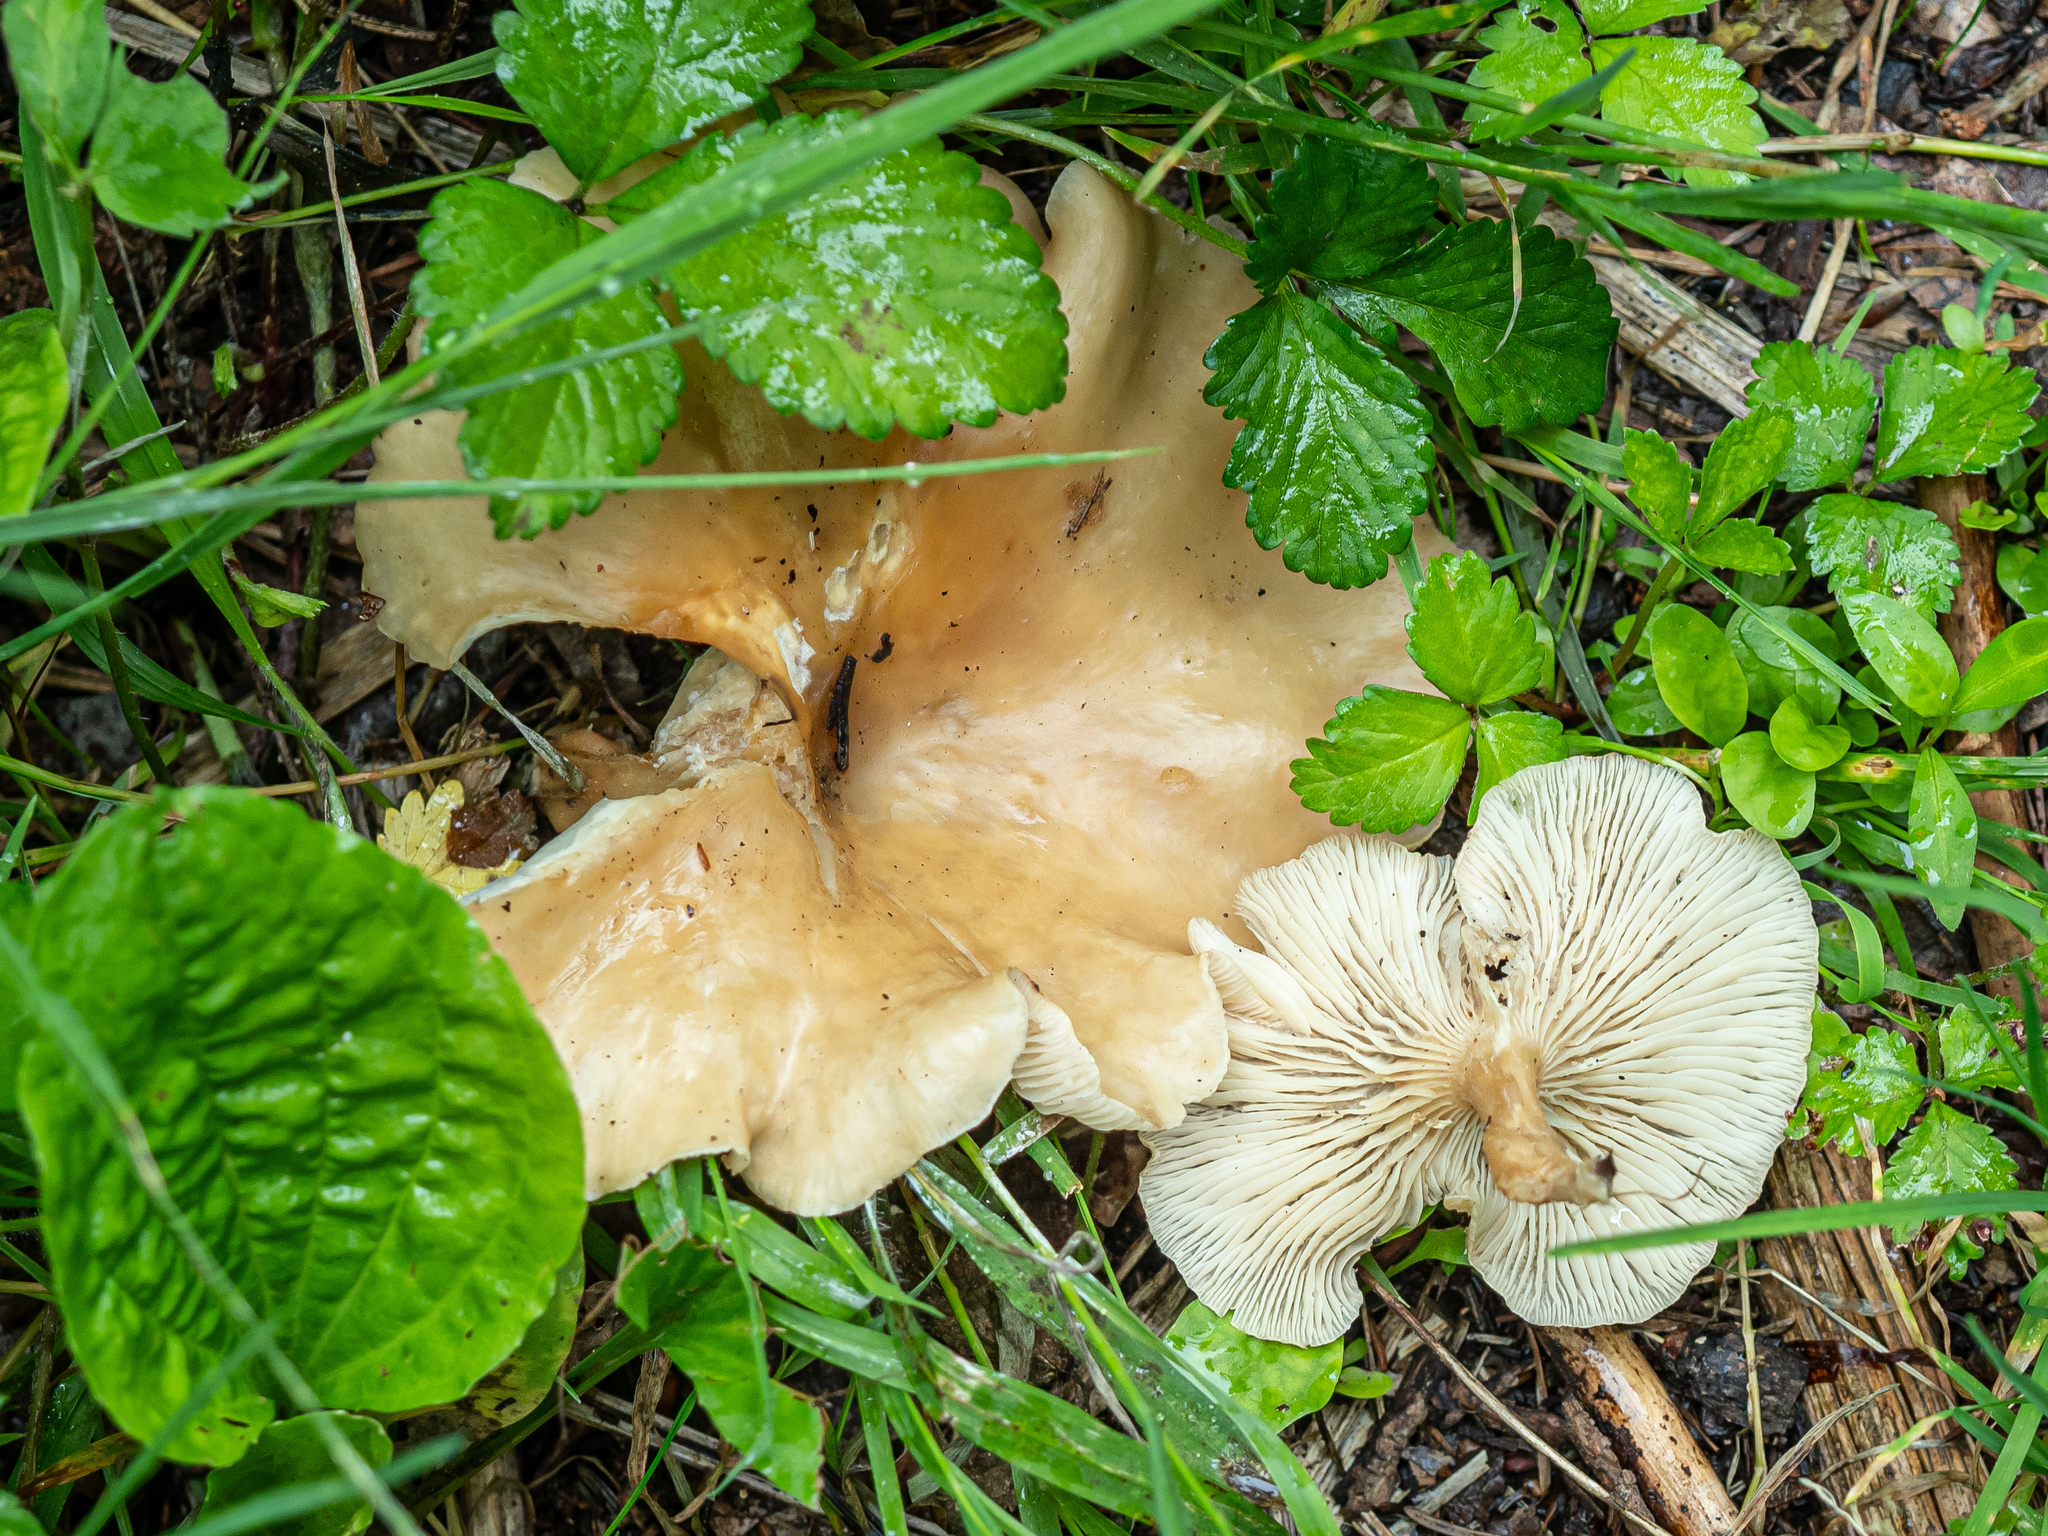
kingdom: Fungi
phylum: Basidiomycota
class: Agaricomycetes
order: Agaricales
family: Tricholomataceae
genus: Clitocybe
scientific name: Clitocybe costata
